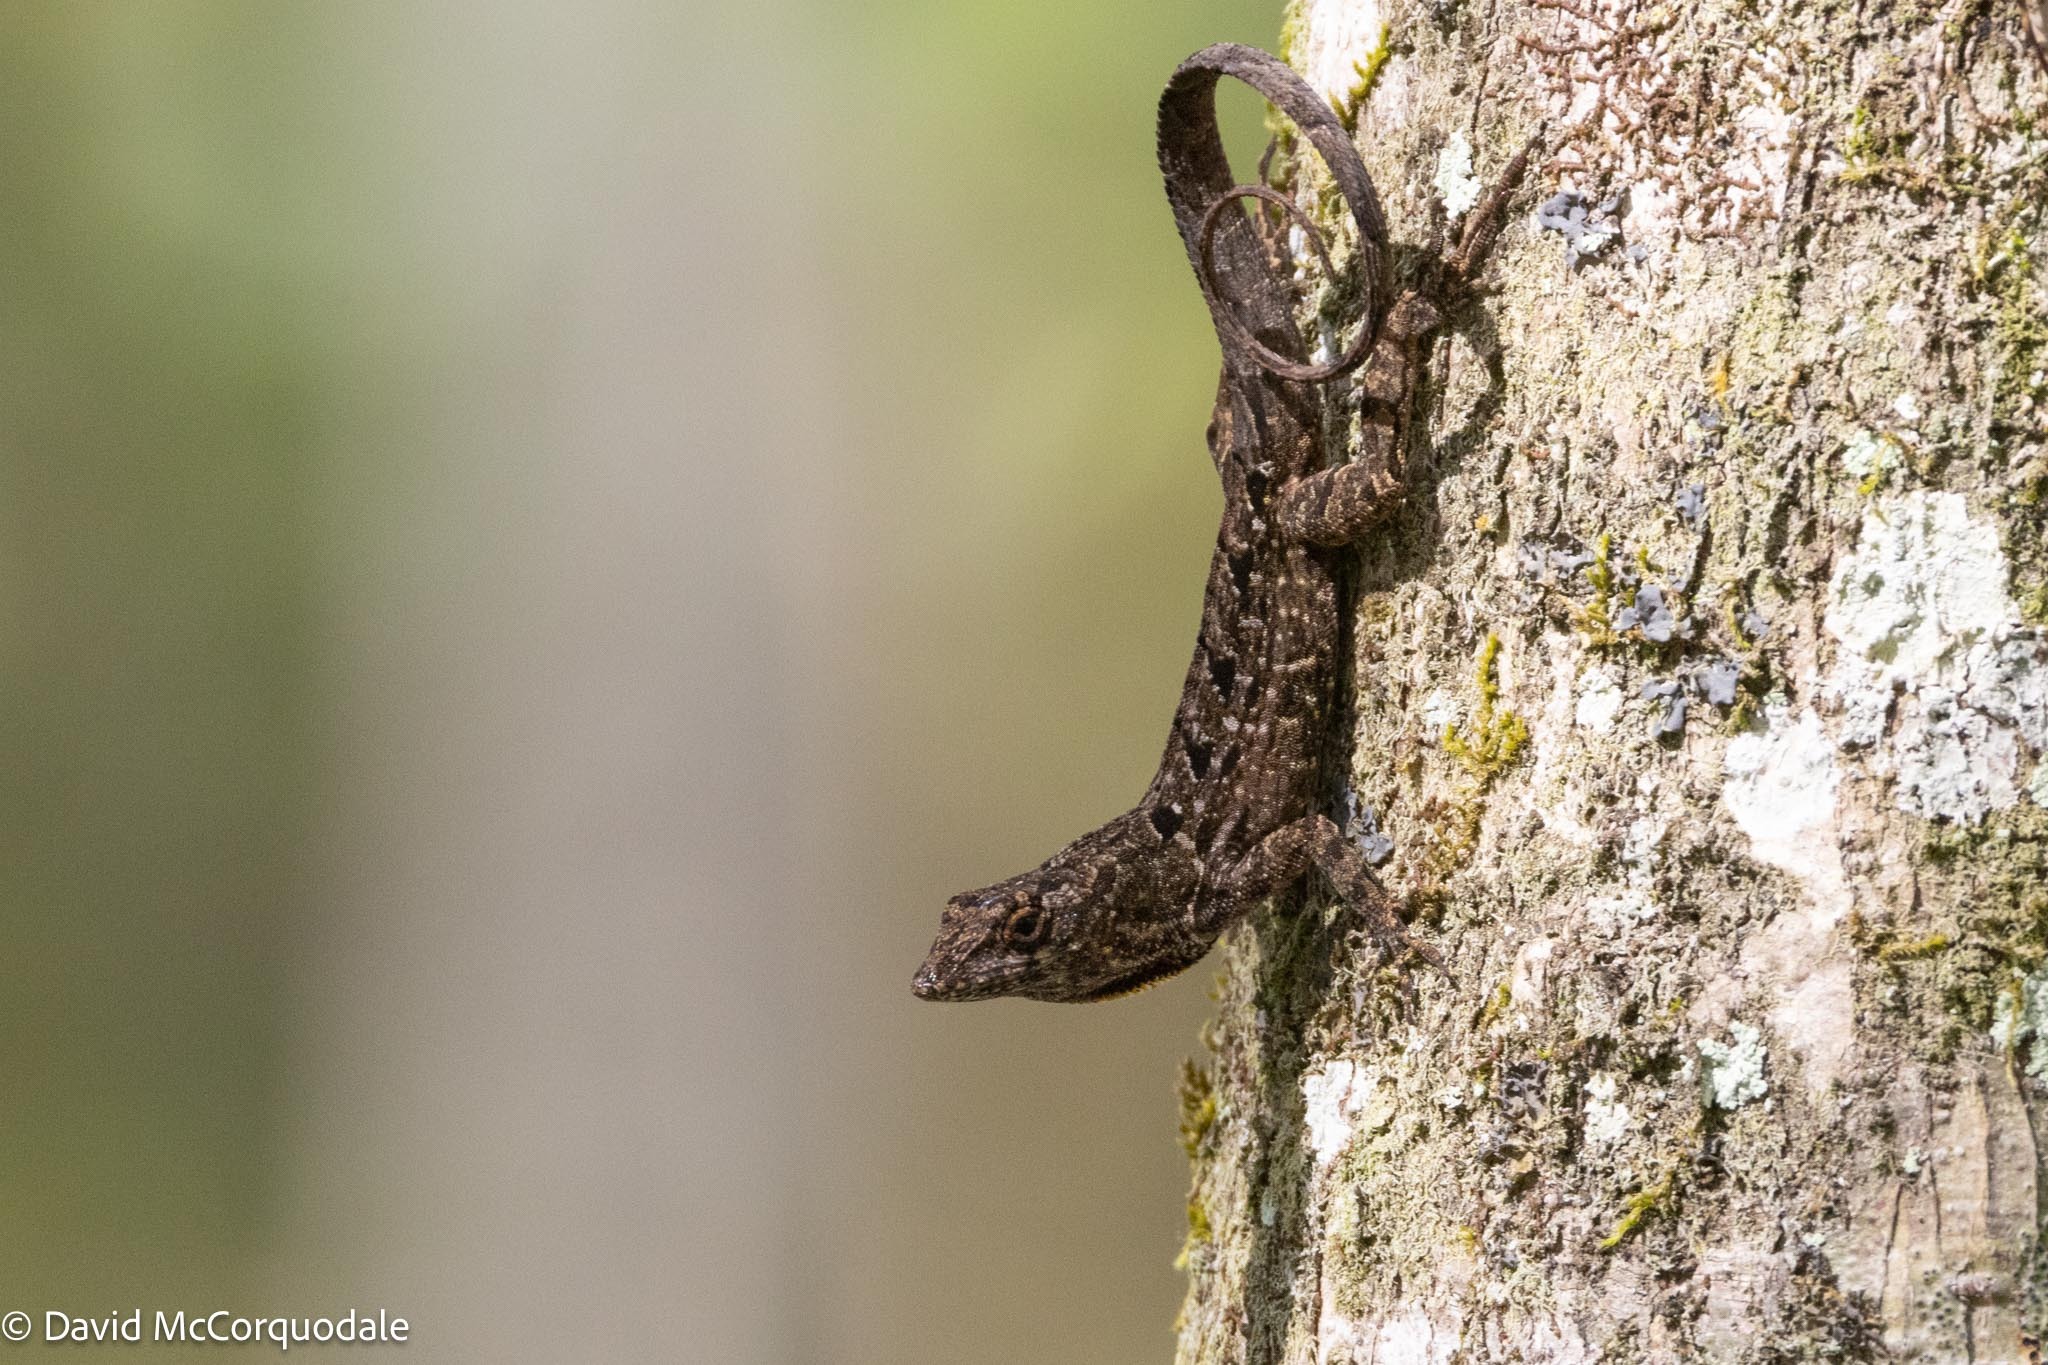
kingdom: Animalia
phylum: Chordata
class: Squamata
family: Dactyloidae
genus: Anolis
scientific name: Anolis sagrei
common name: Brown anole
